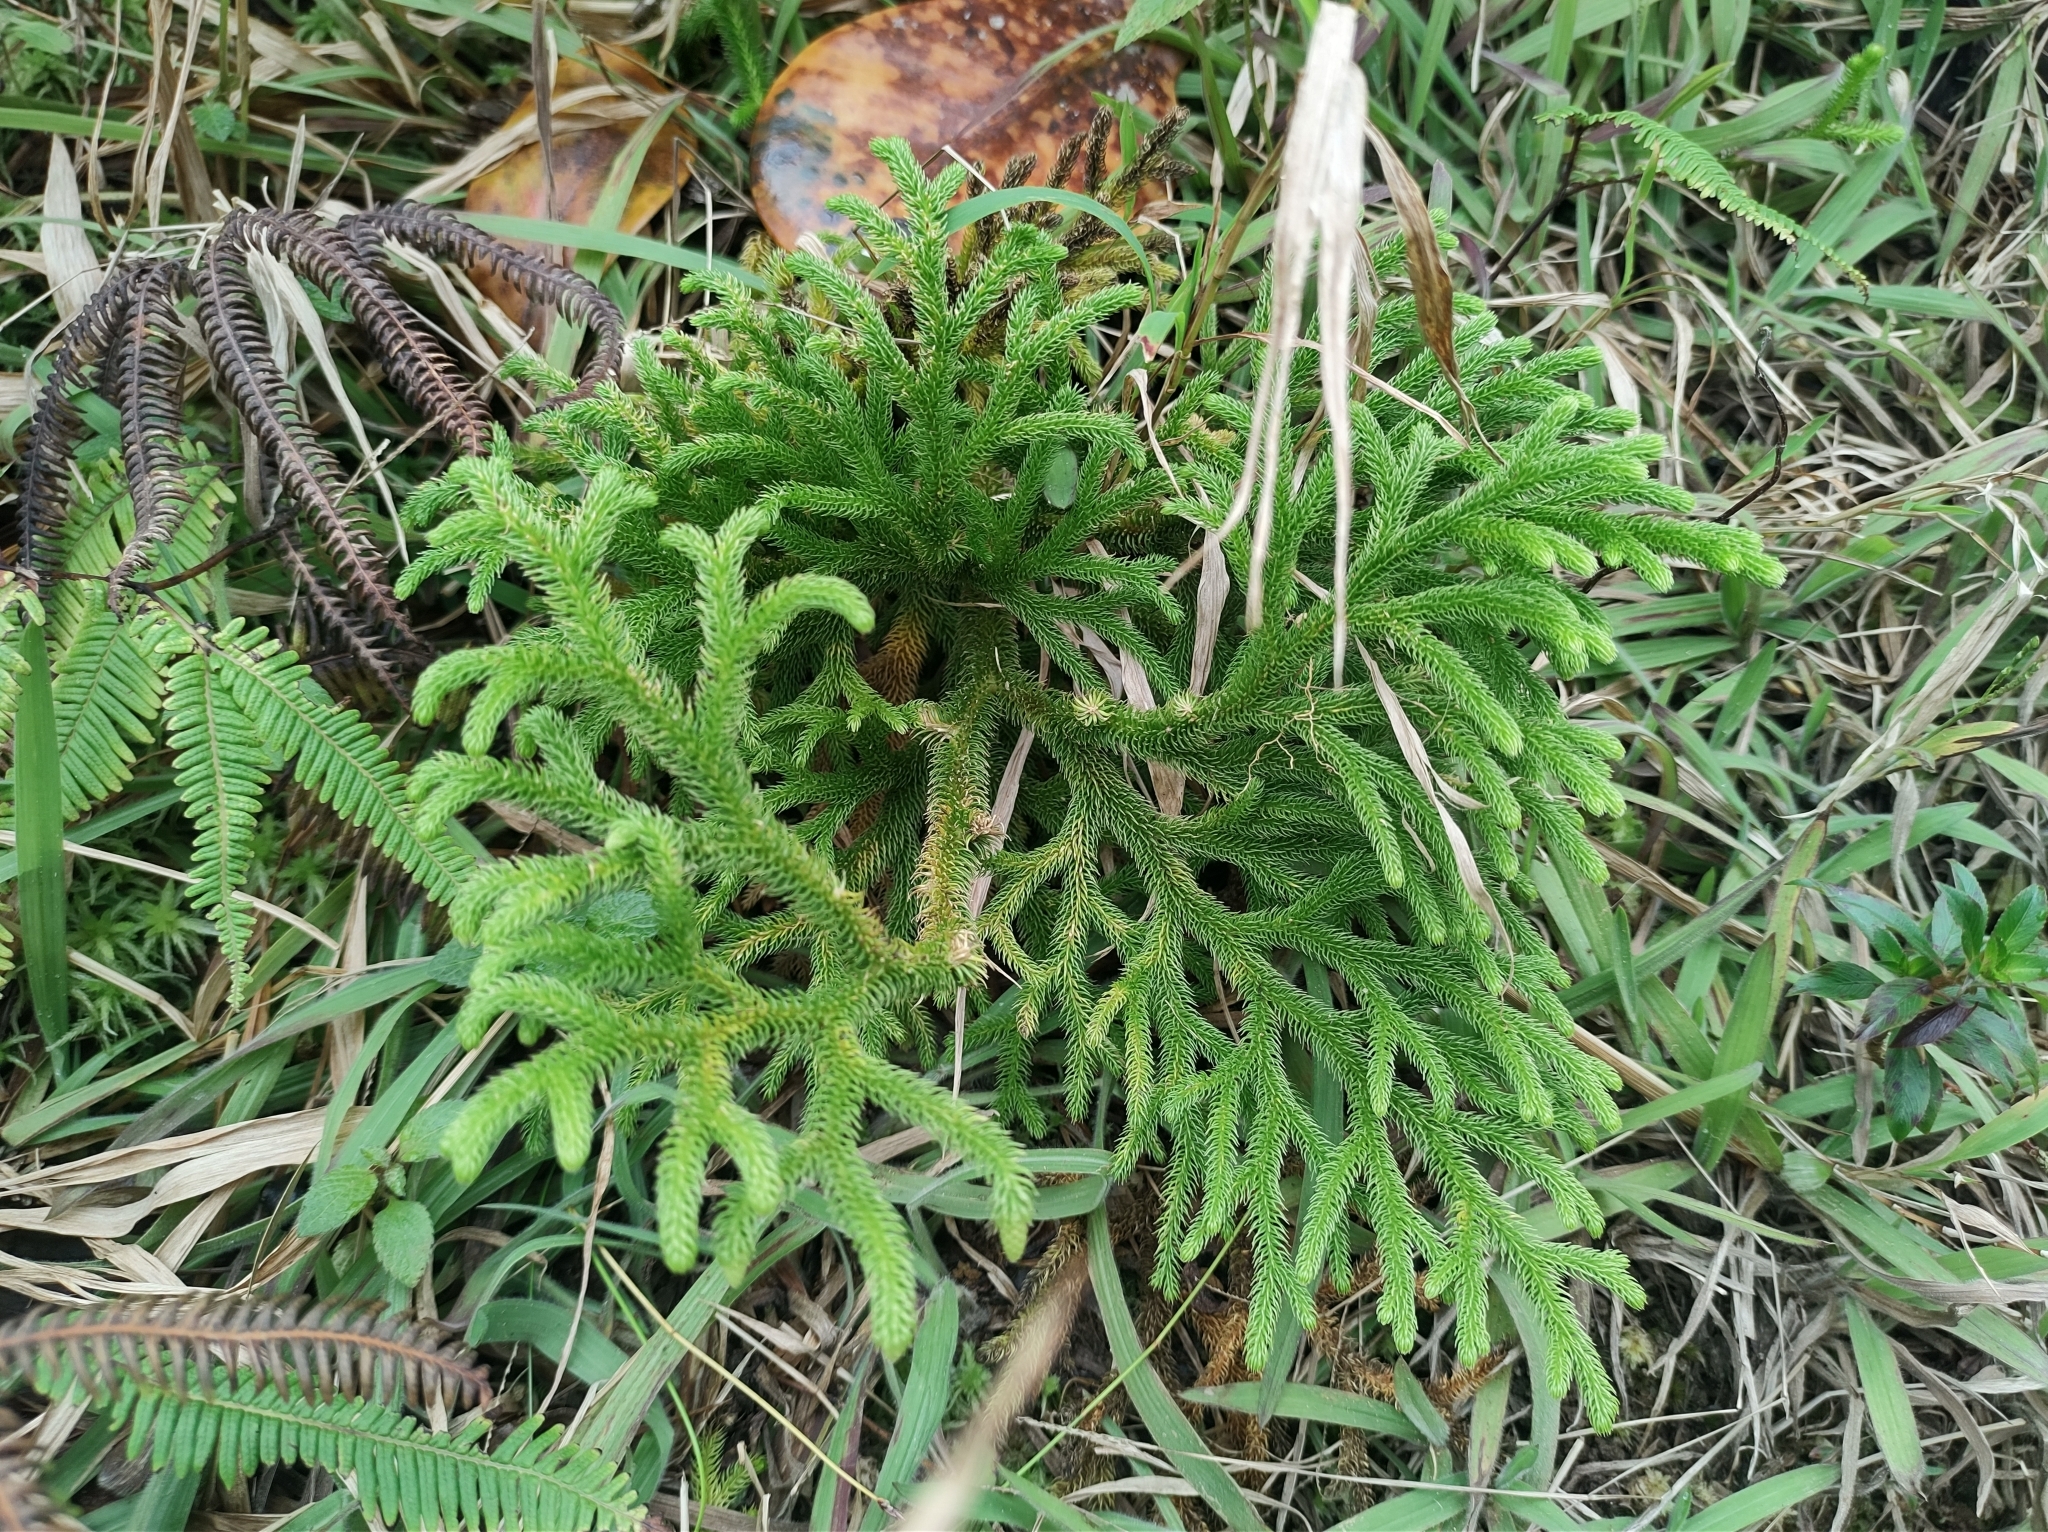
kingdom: Plantae
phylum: Tracheophyta
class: Lycopodiopsida
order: Lycopodiales
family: Lycopodiaceae
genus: Palhinhaea
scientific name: Palhinhaea torta
